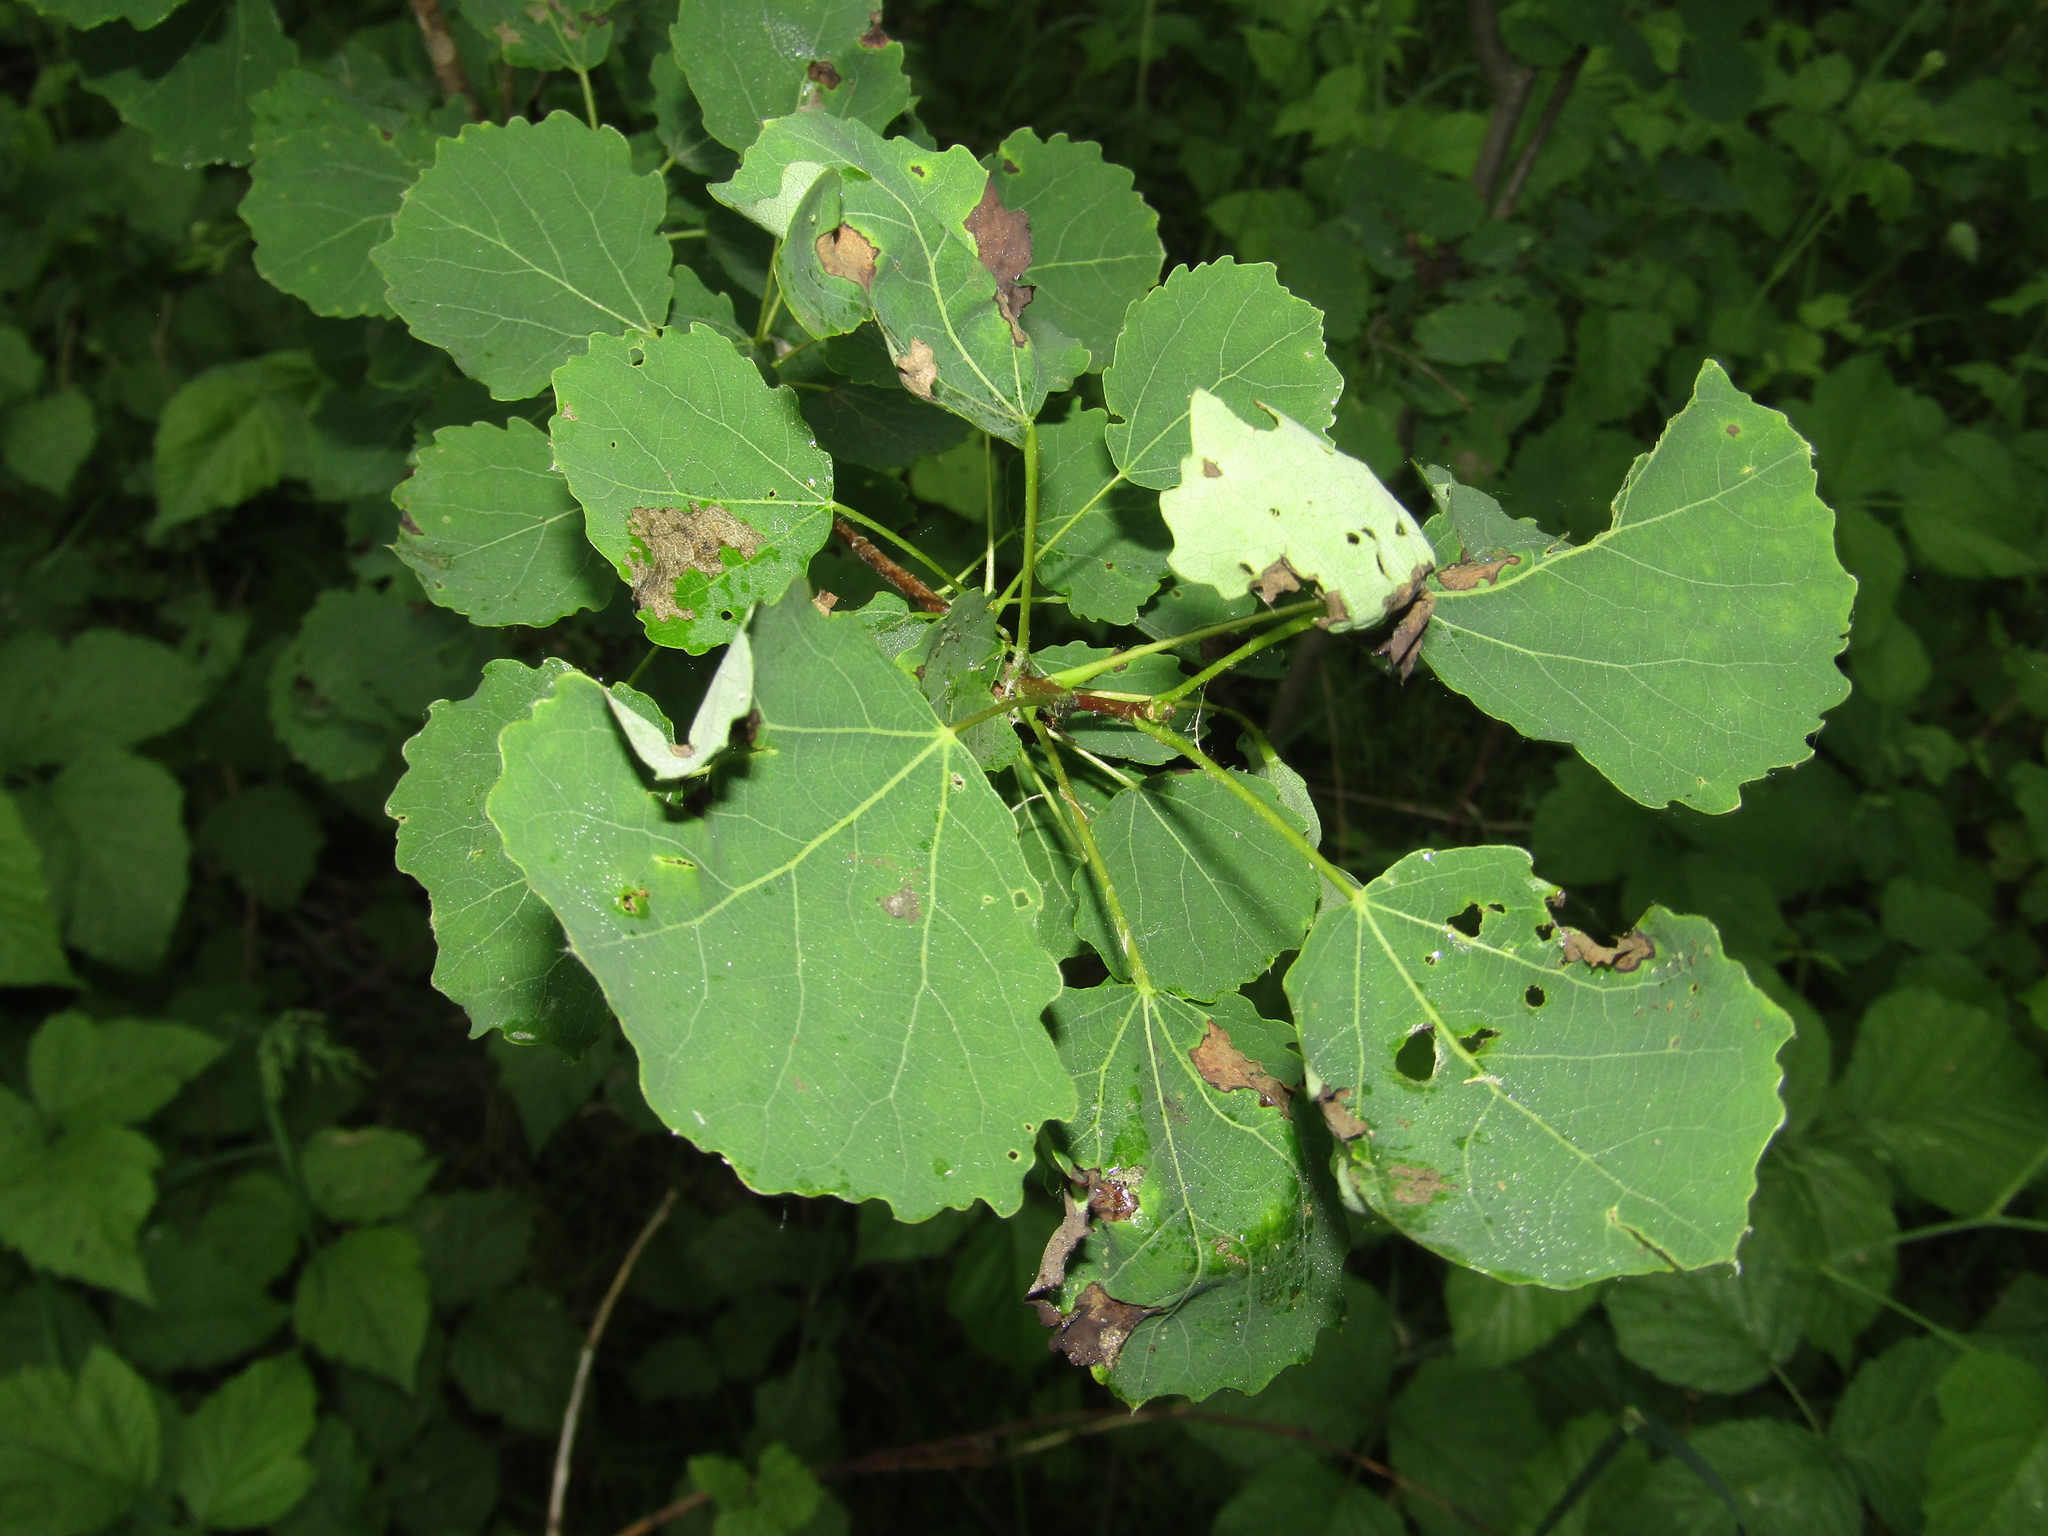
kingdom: Plantae
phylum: Tracheophyta
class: Magnoliopsida
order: Malpighiales
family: Salicaceae
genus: Populus
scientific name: Populus tremula
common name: European aspen
